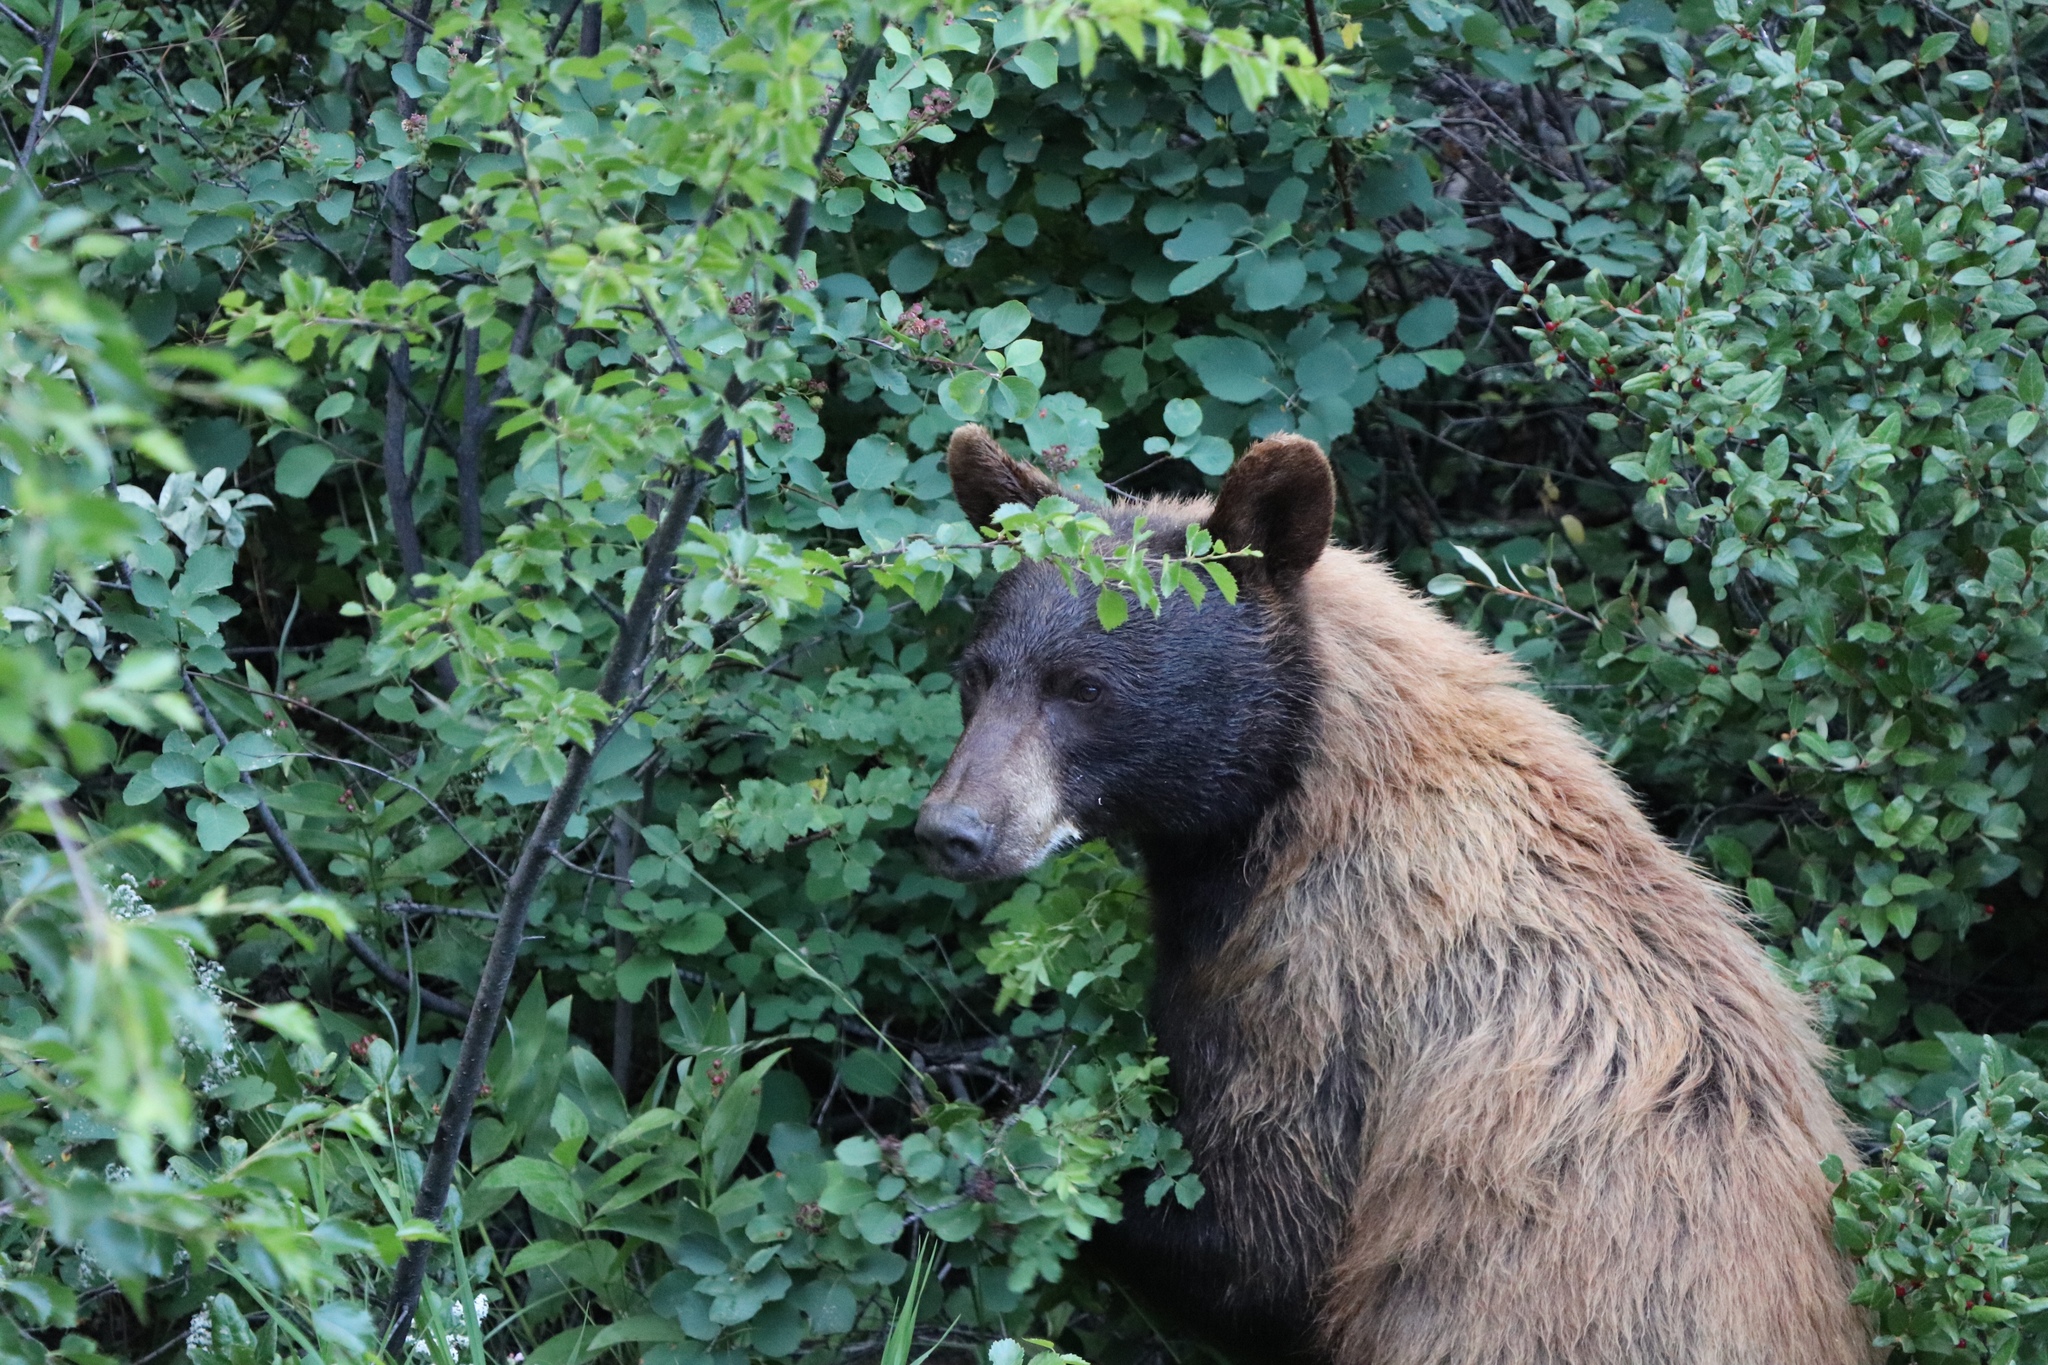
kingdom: Animalia
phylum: Chordata
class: Mammalia
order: Carnivora
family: Ursidae
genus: Ursus
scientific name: Ursus americanus
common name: American black bear
